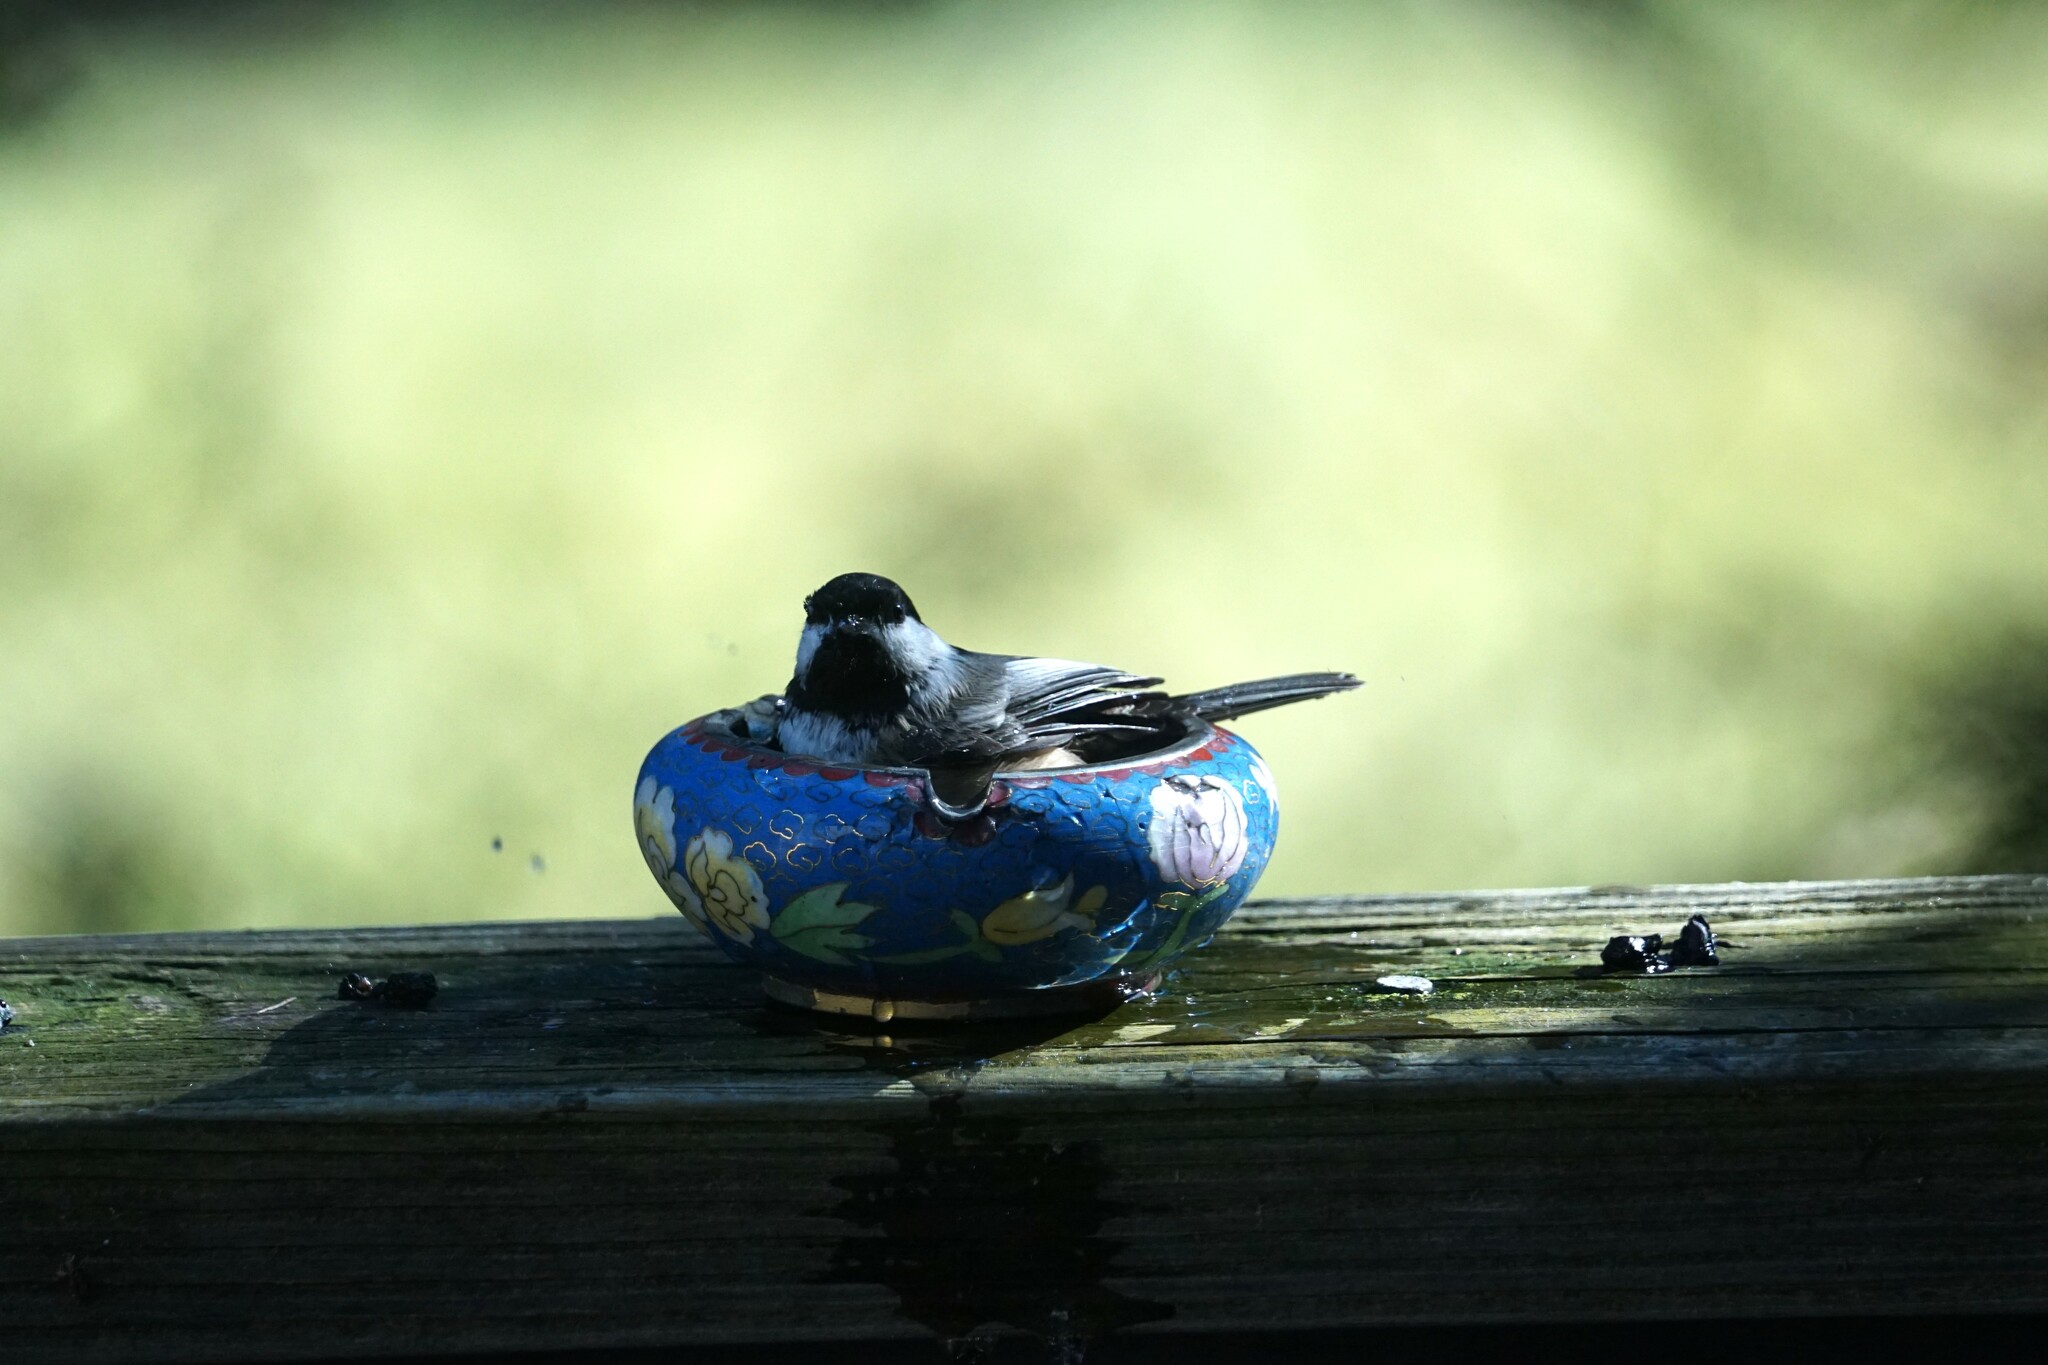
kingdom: Animalia
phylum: Chordata
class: Aves
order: Passeriformes
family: Paridae
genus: Poecile
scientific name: Poecile atricapillus
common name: Black-capped chickadee
